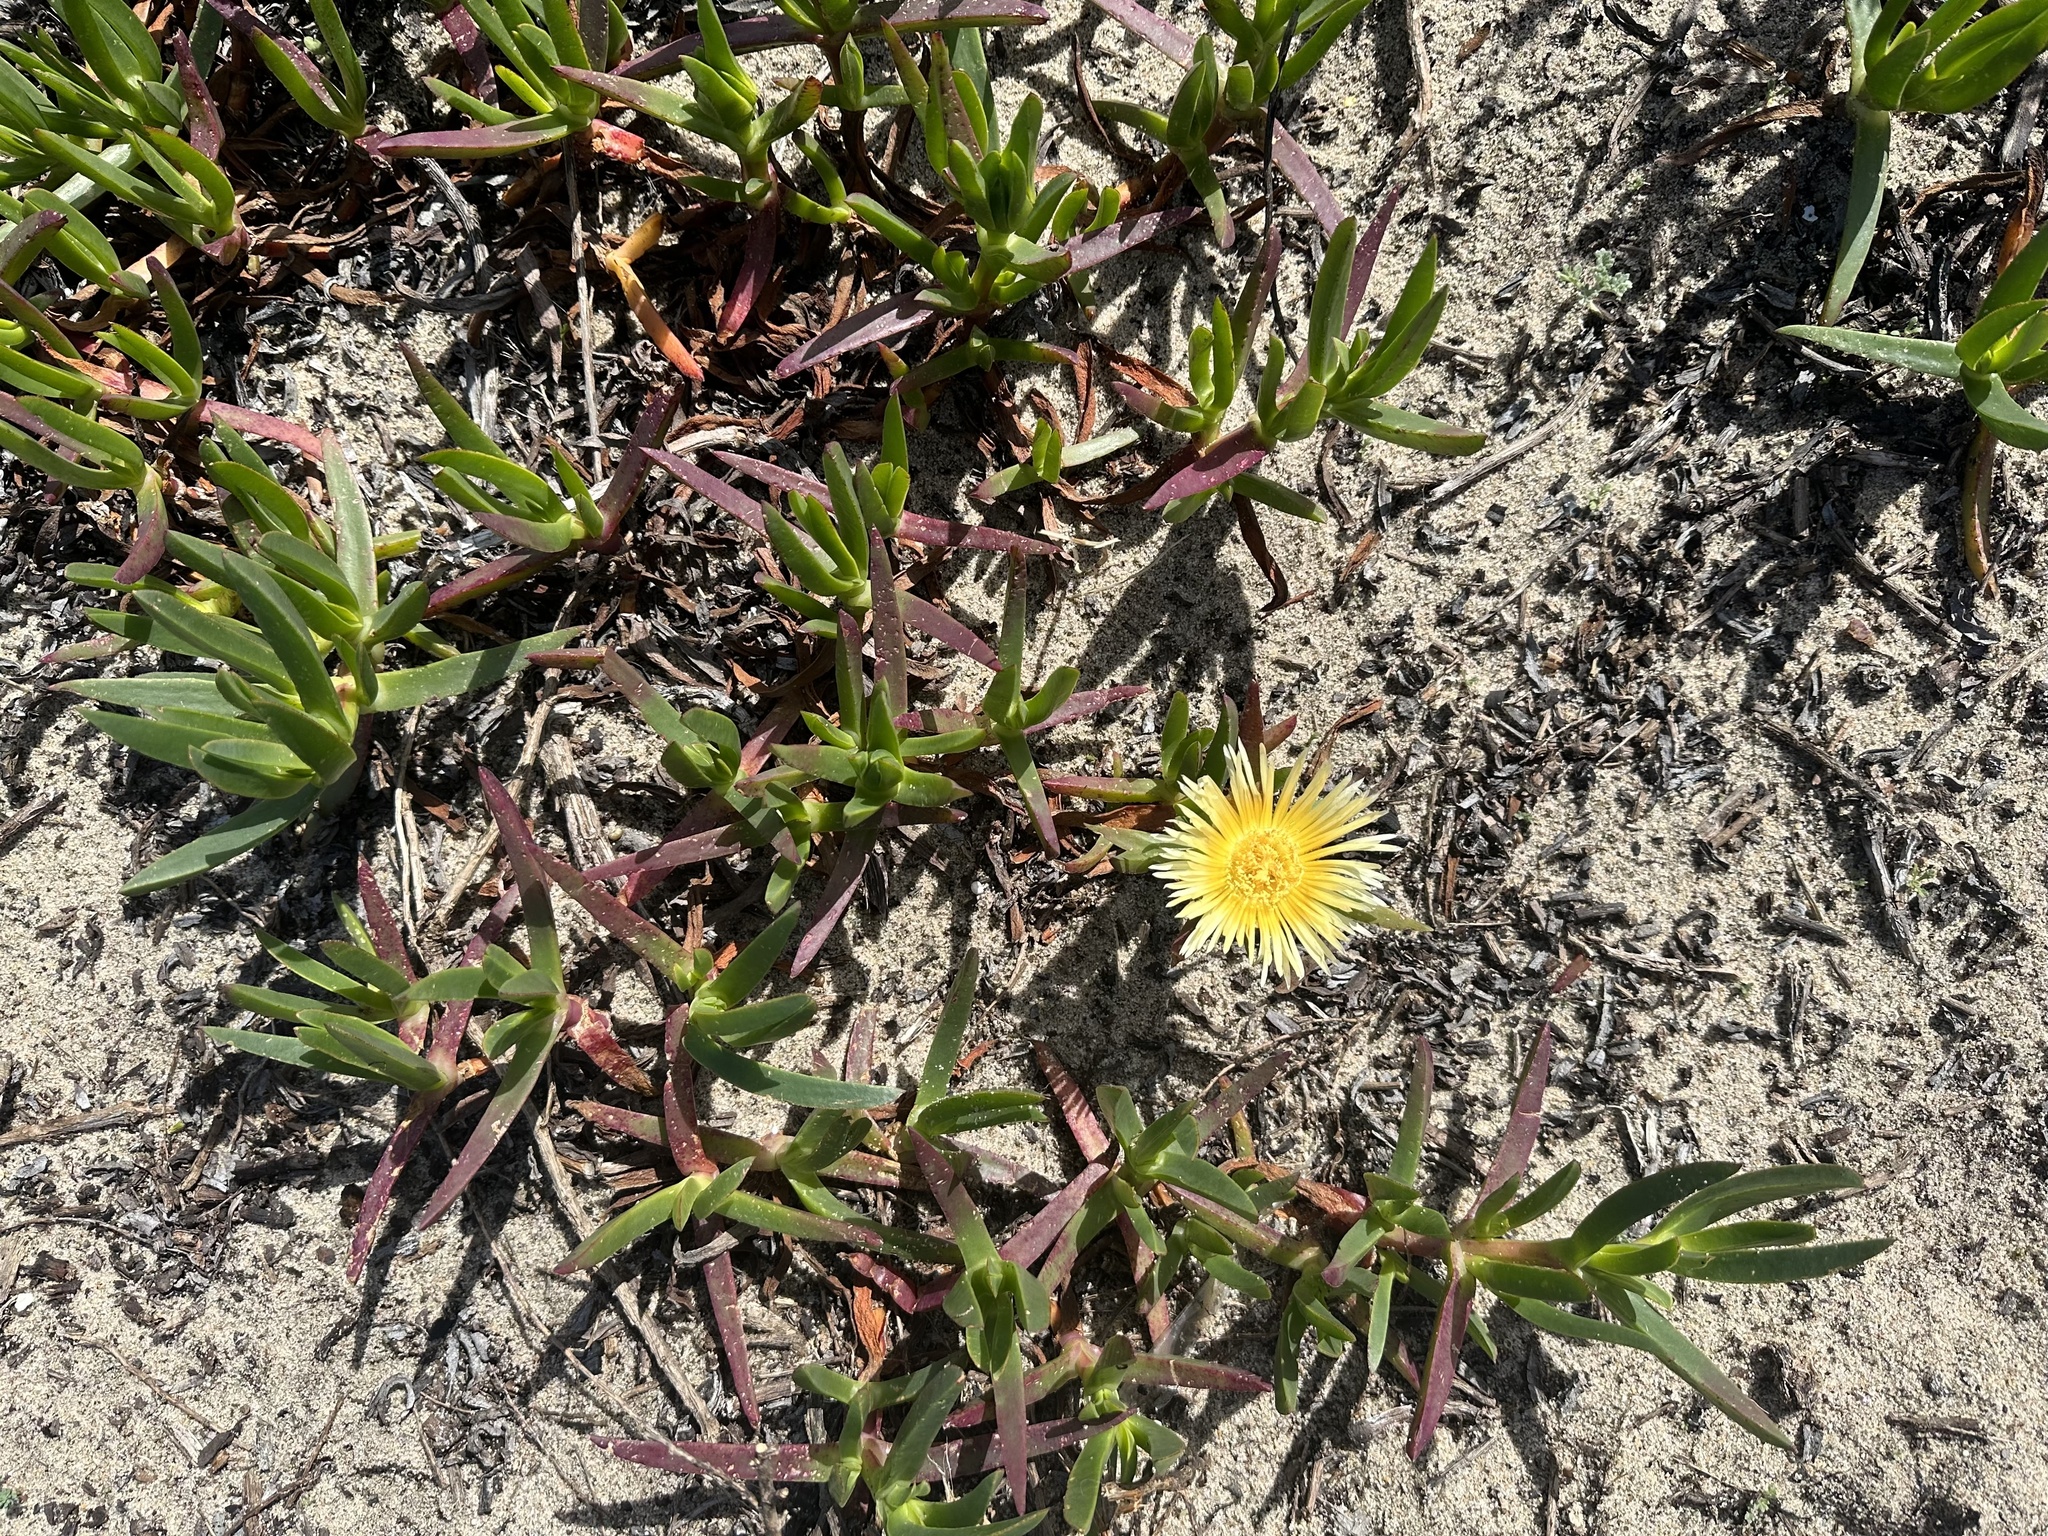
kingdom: Plantae
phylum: Tracheophyta
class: Magnoliopsida
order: Caryophyllales
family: Aizoaceae
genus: Carpobrotus
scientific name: Carpobrotus edulis
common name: Hottentot-fig
